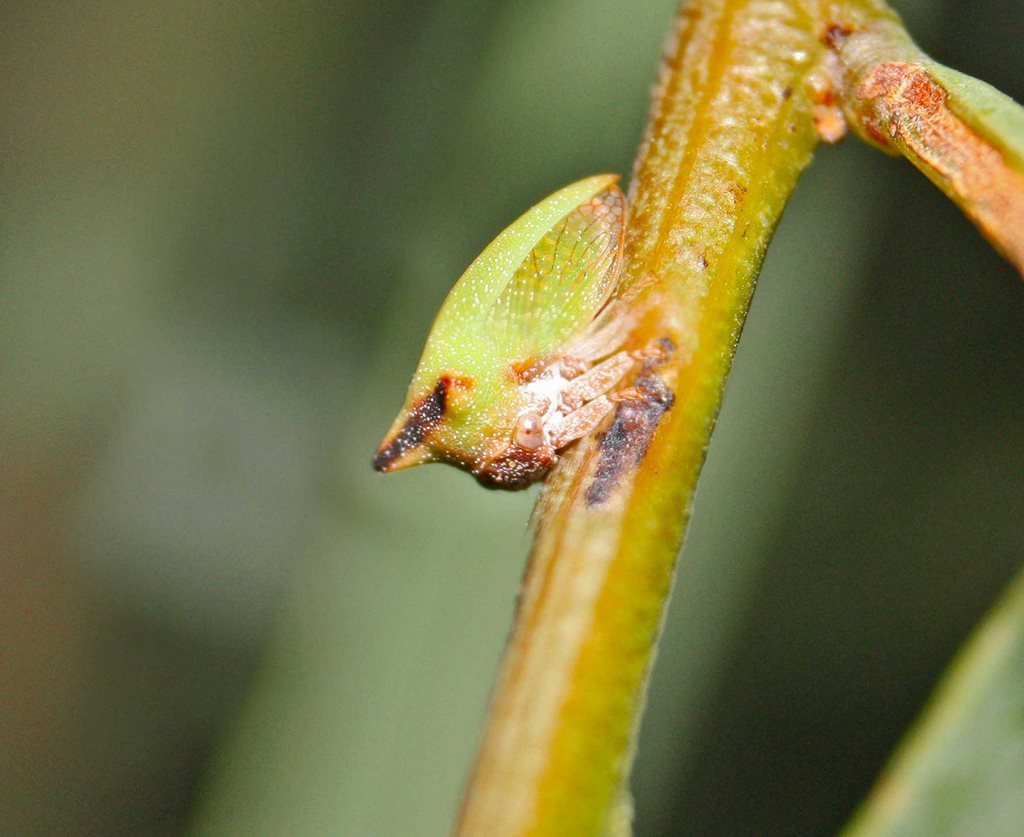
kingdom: Animalia
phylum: Arthropoda
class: Insecta
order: Hemiptera
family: Membracidae
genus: Sextius
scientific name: Sextius virescens
